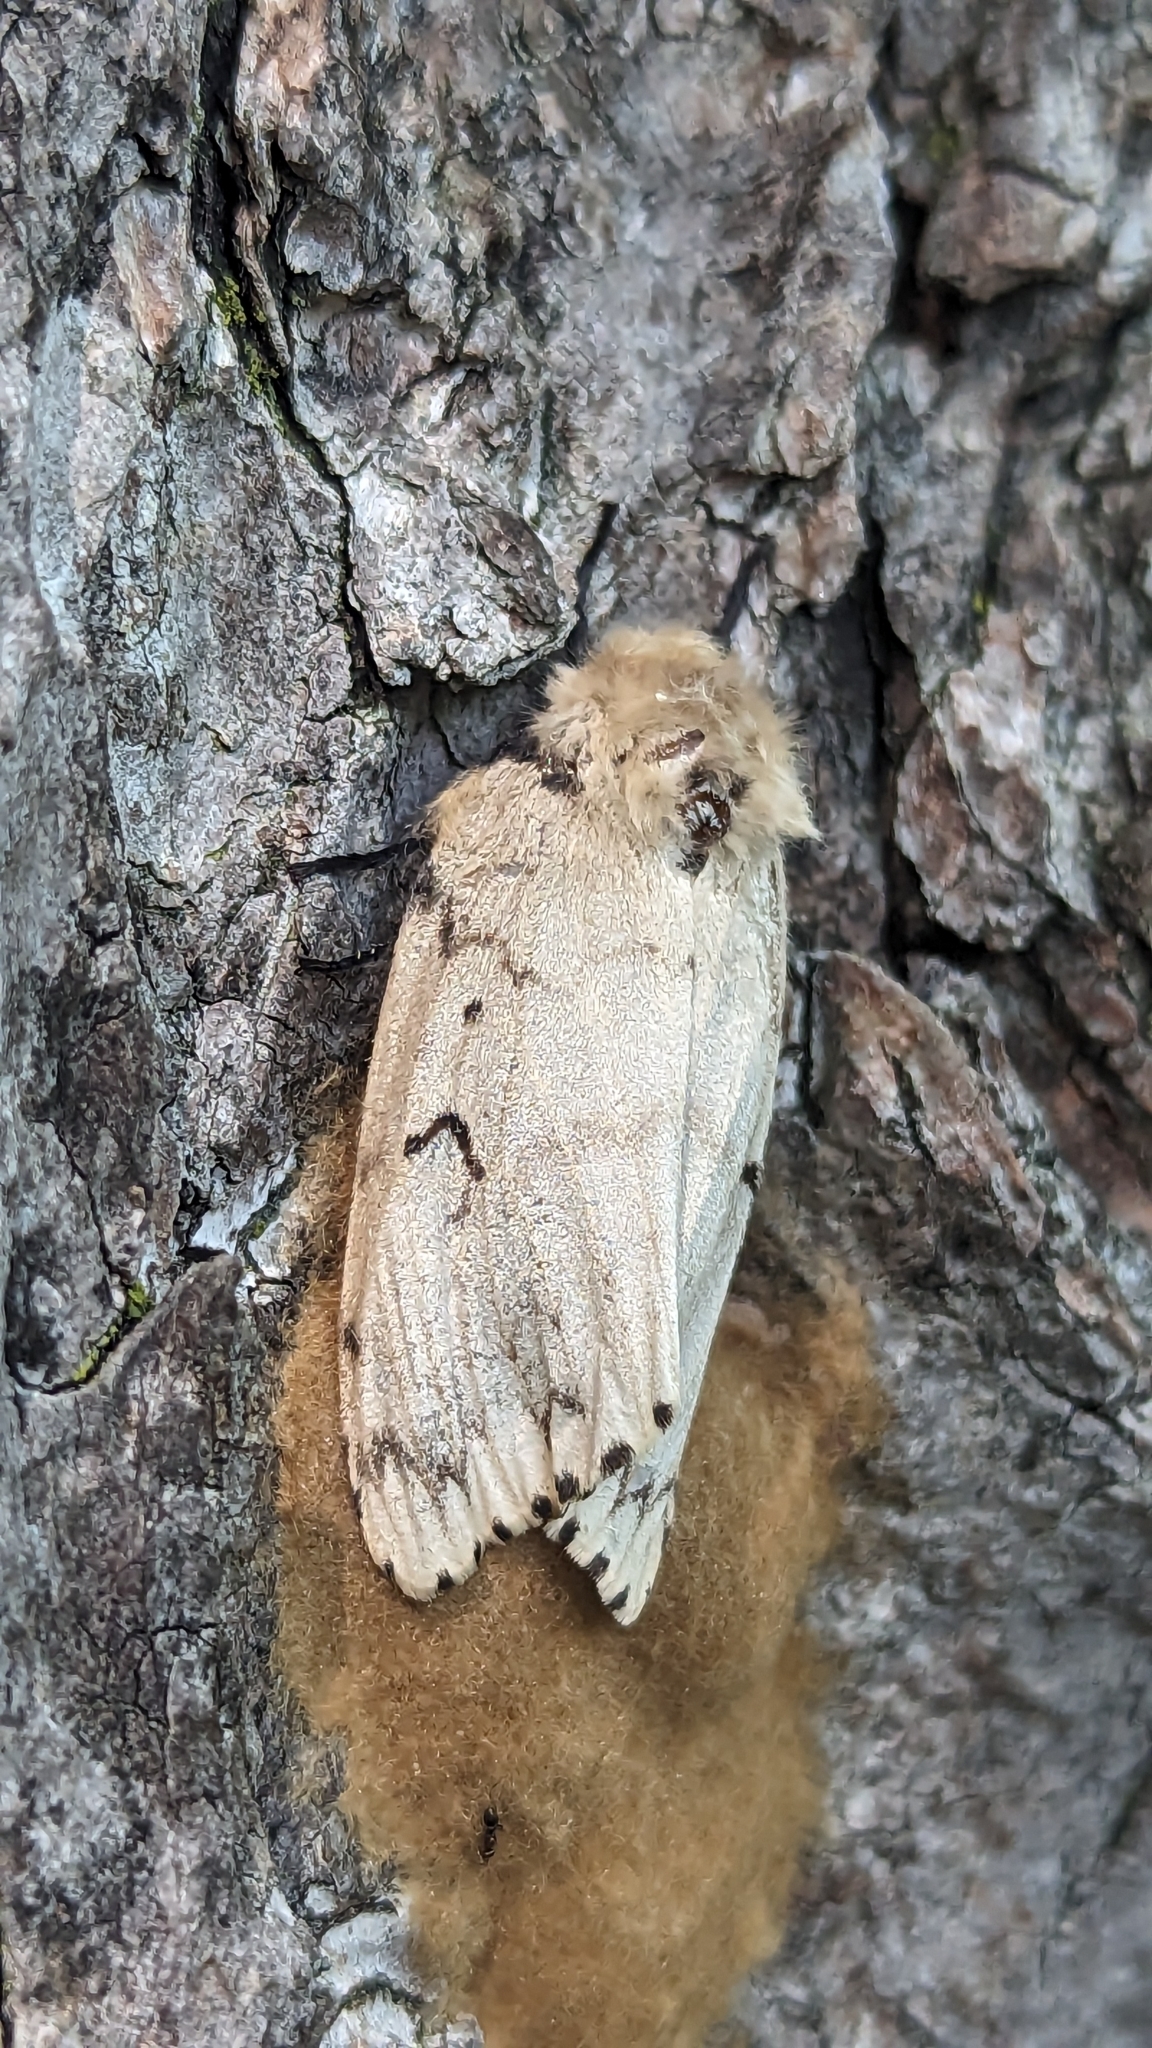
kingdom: Animalia
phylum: Arthropoda
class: Insecta
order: Lepidoptera
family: Erebidae
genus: Lymantria
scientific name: Lymantria dispar
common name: Gypsy moth
